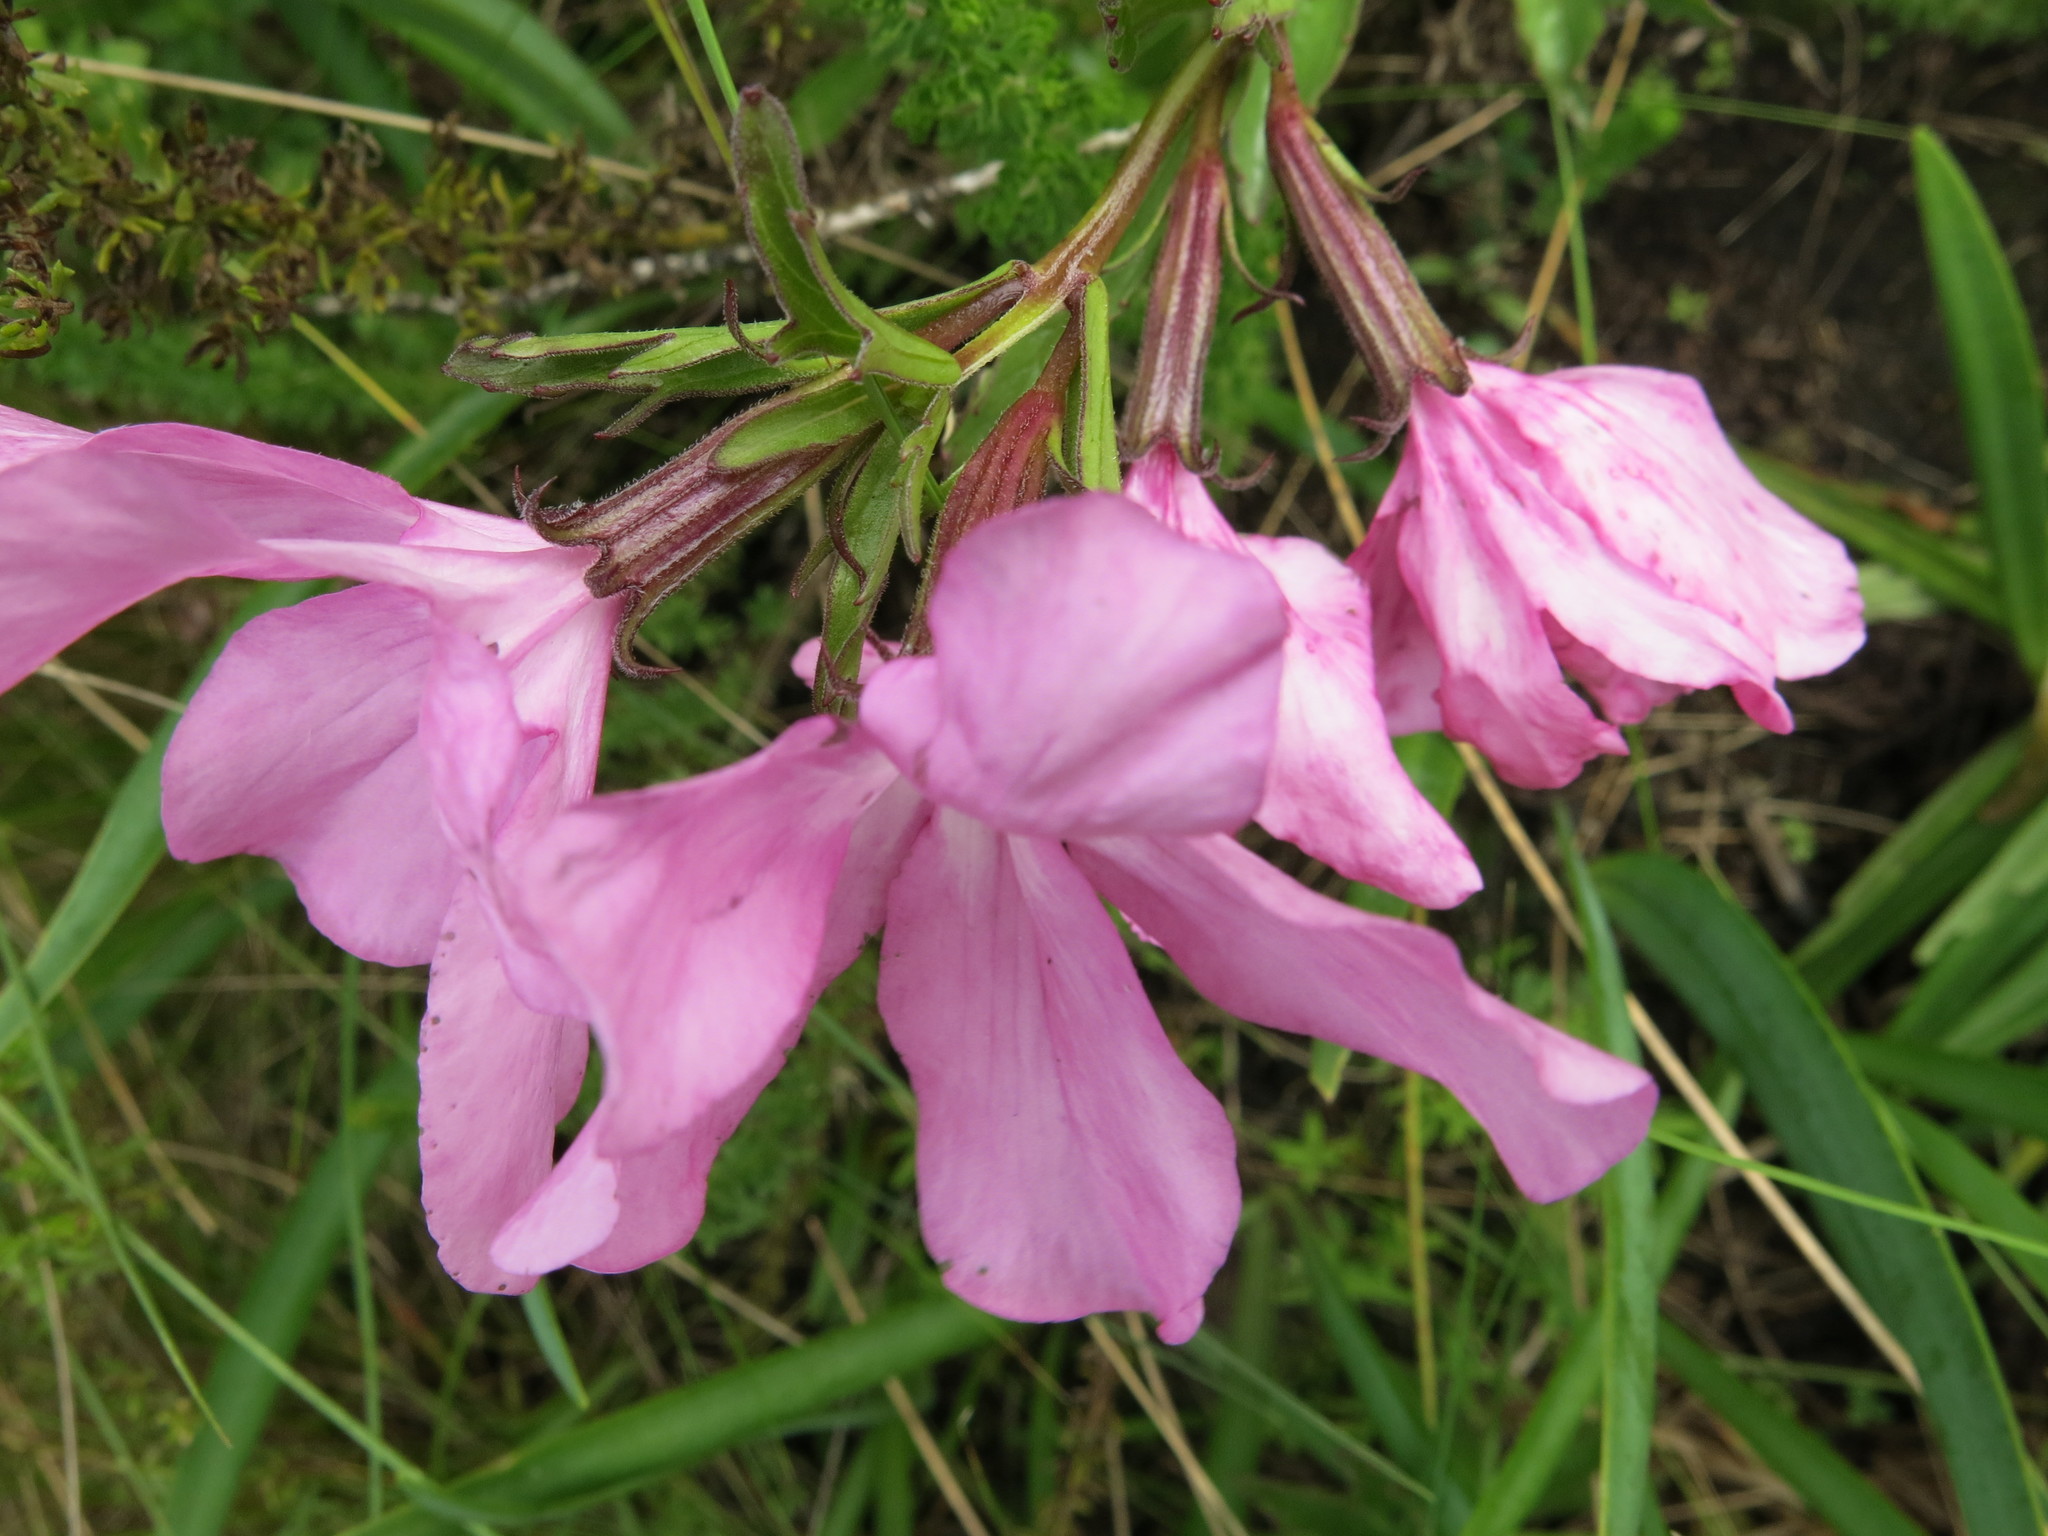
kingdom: Plantae
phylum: Tracheophyta
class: Magnoliopsida
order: Lamiales
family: Orobanchaceae
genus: Cycnium
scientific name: Cycnium racemosum
